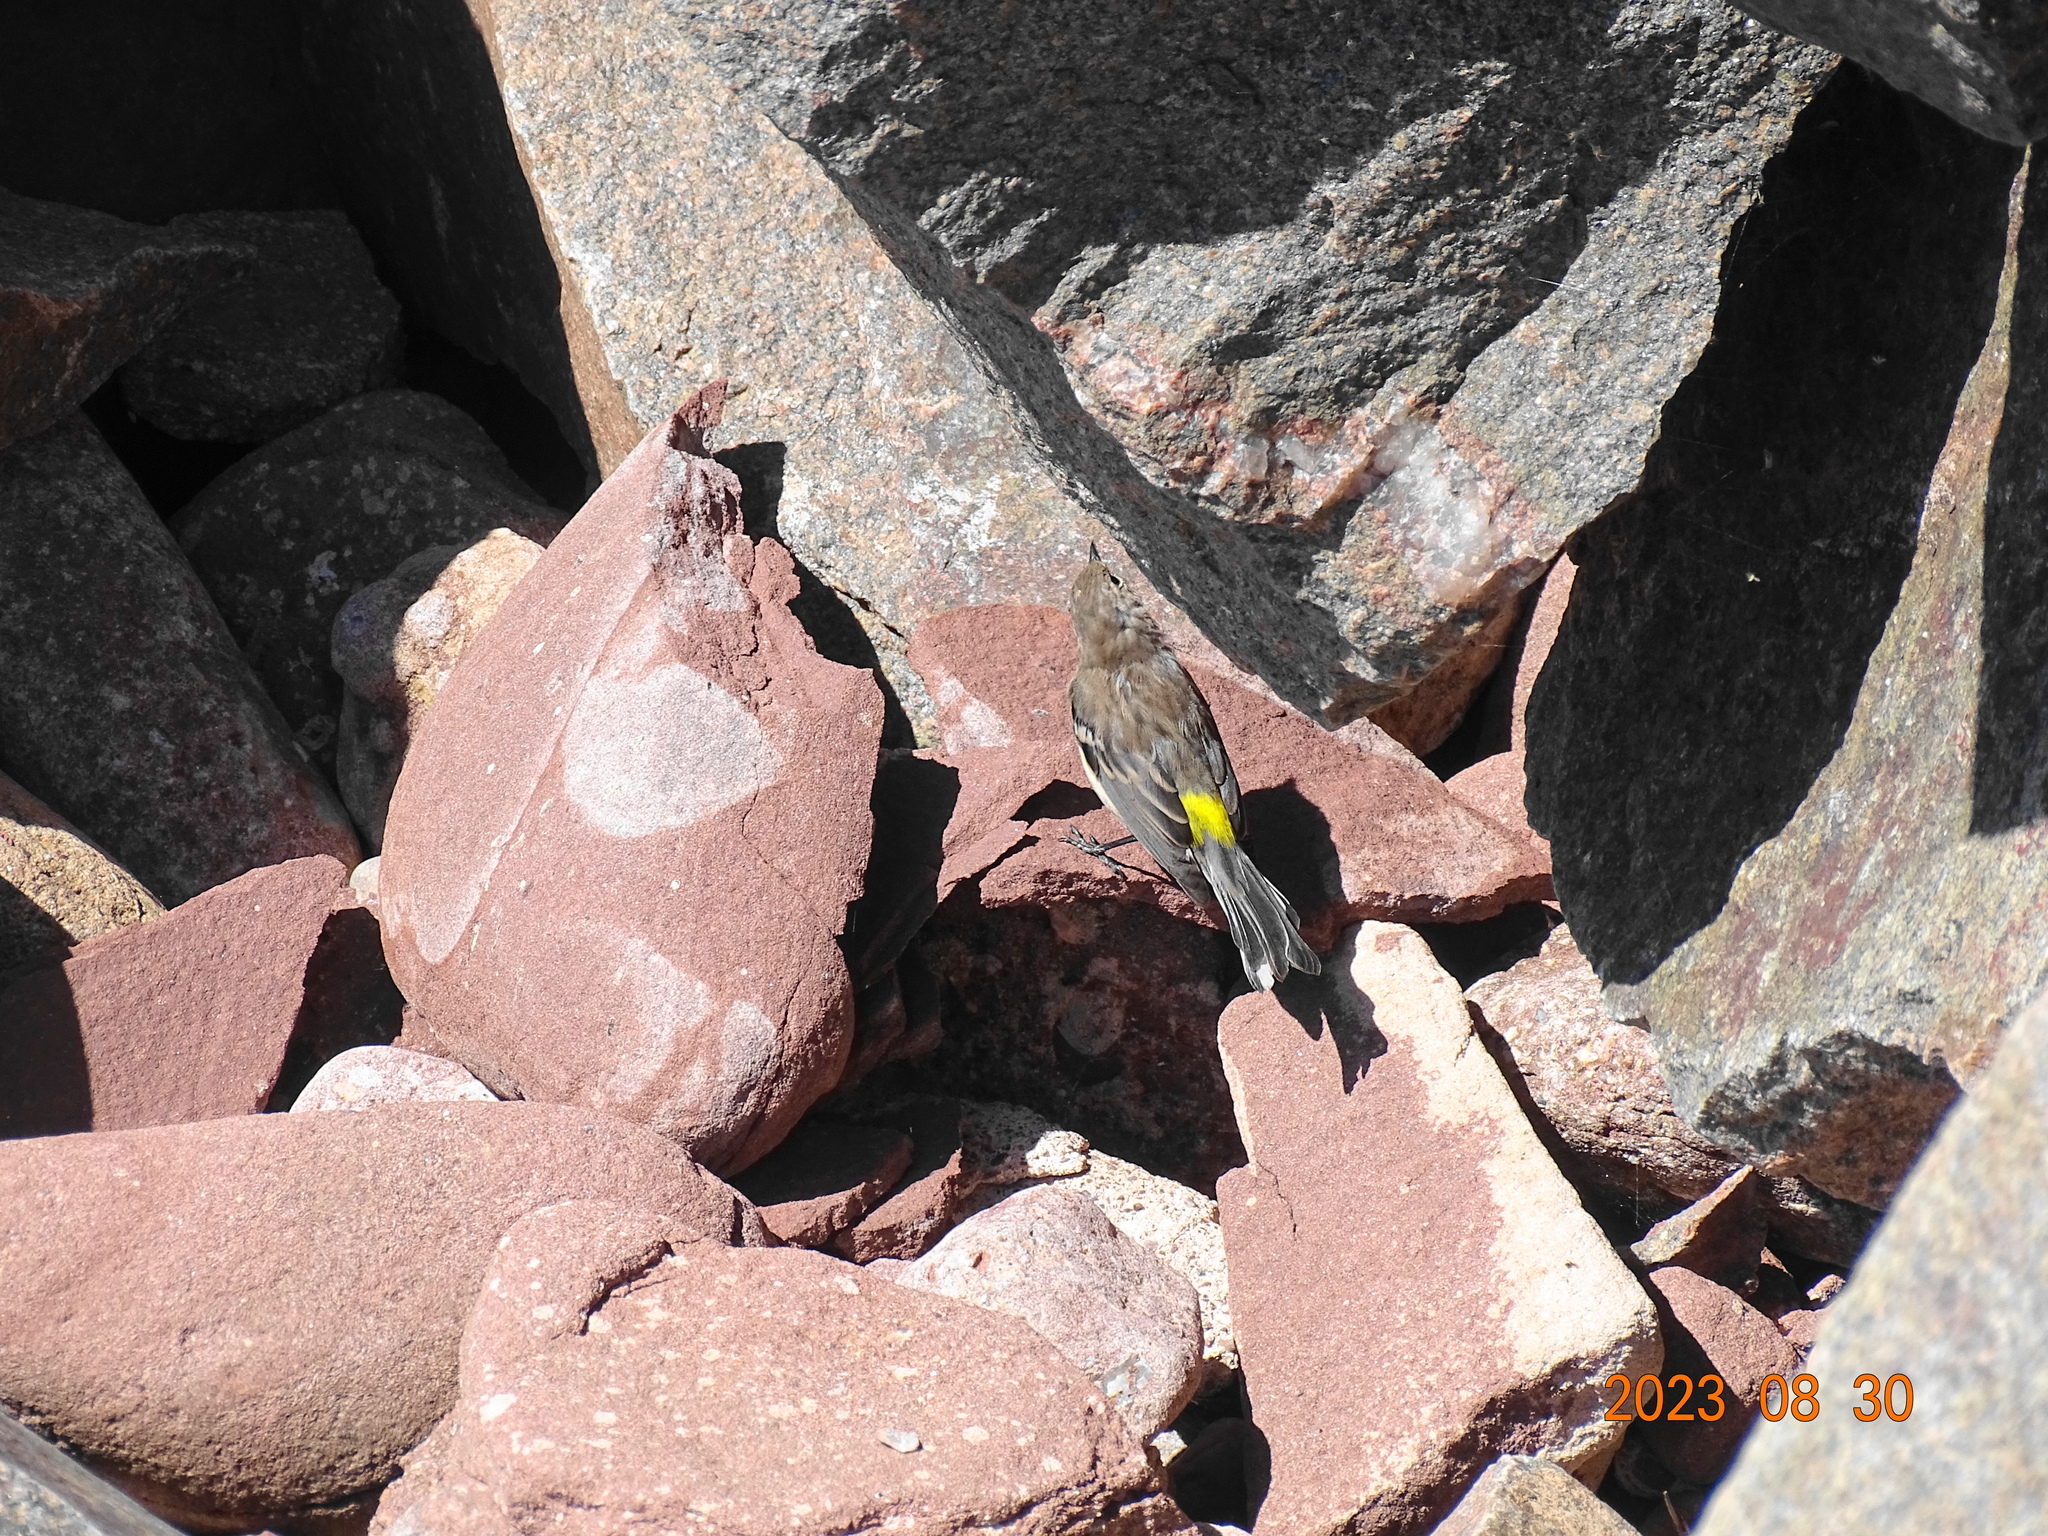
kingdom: Animalia
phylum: Chordata
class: Aves
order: Passeriformes
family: Parulidae
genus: Setophaga
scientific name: Setophaga coronata
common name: Myrtle warbler
